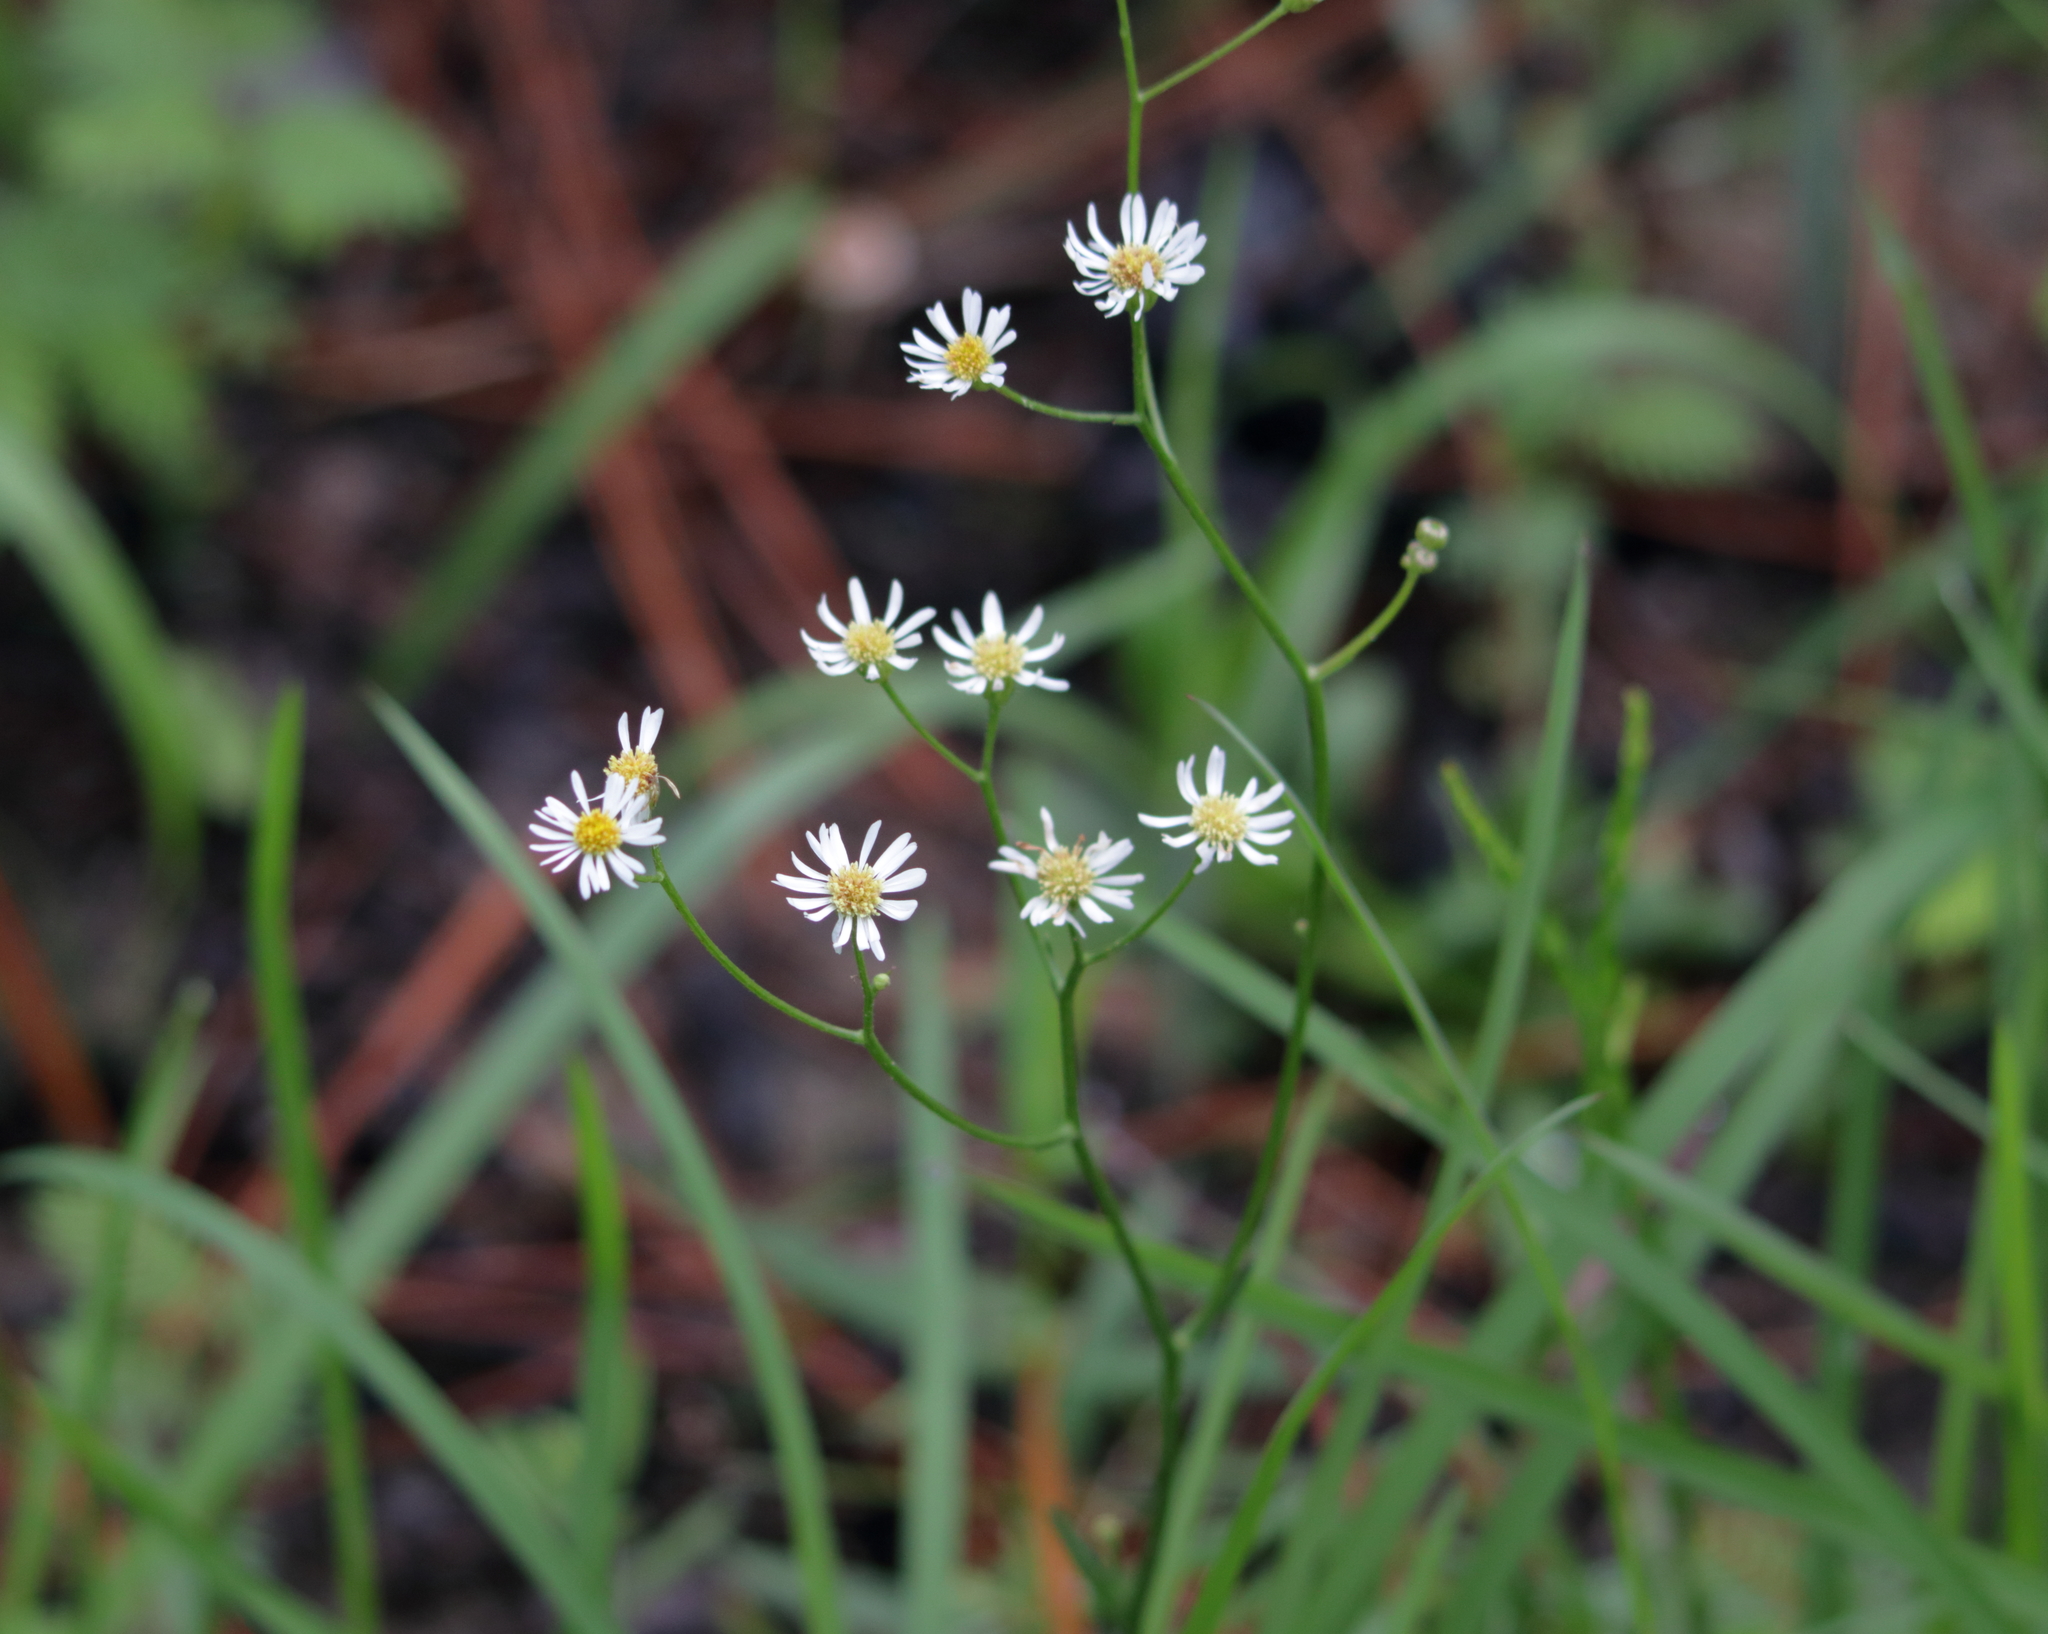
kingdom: Plantae
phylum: Tracheophyta
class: Magnoliopsida
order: Asterales
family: Asteraceae
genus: Erigeron
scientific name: Erigeron vernus
